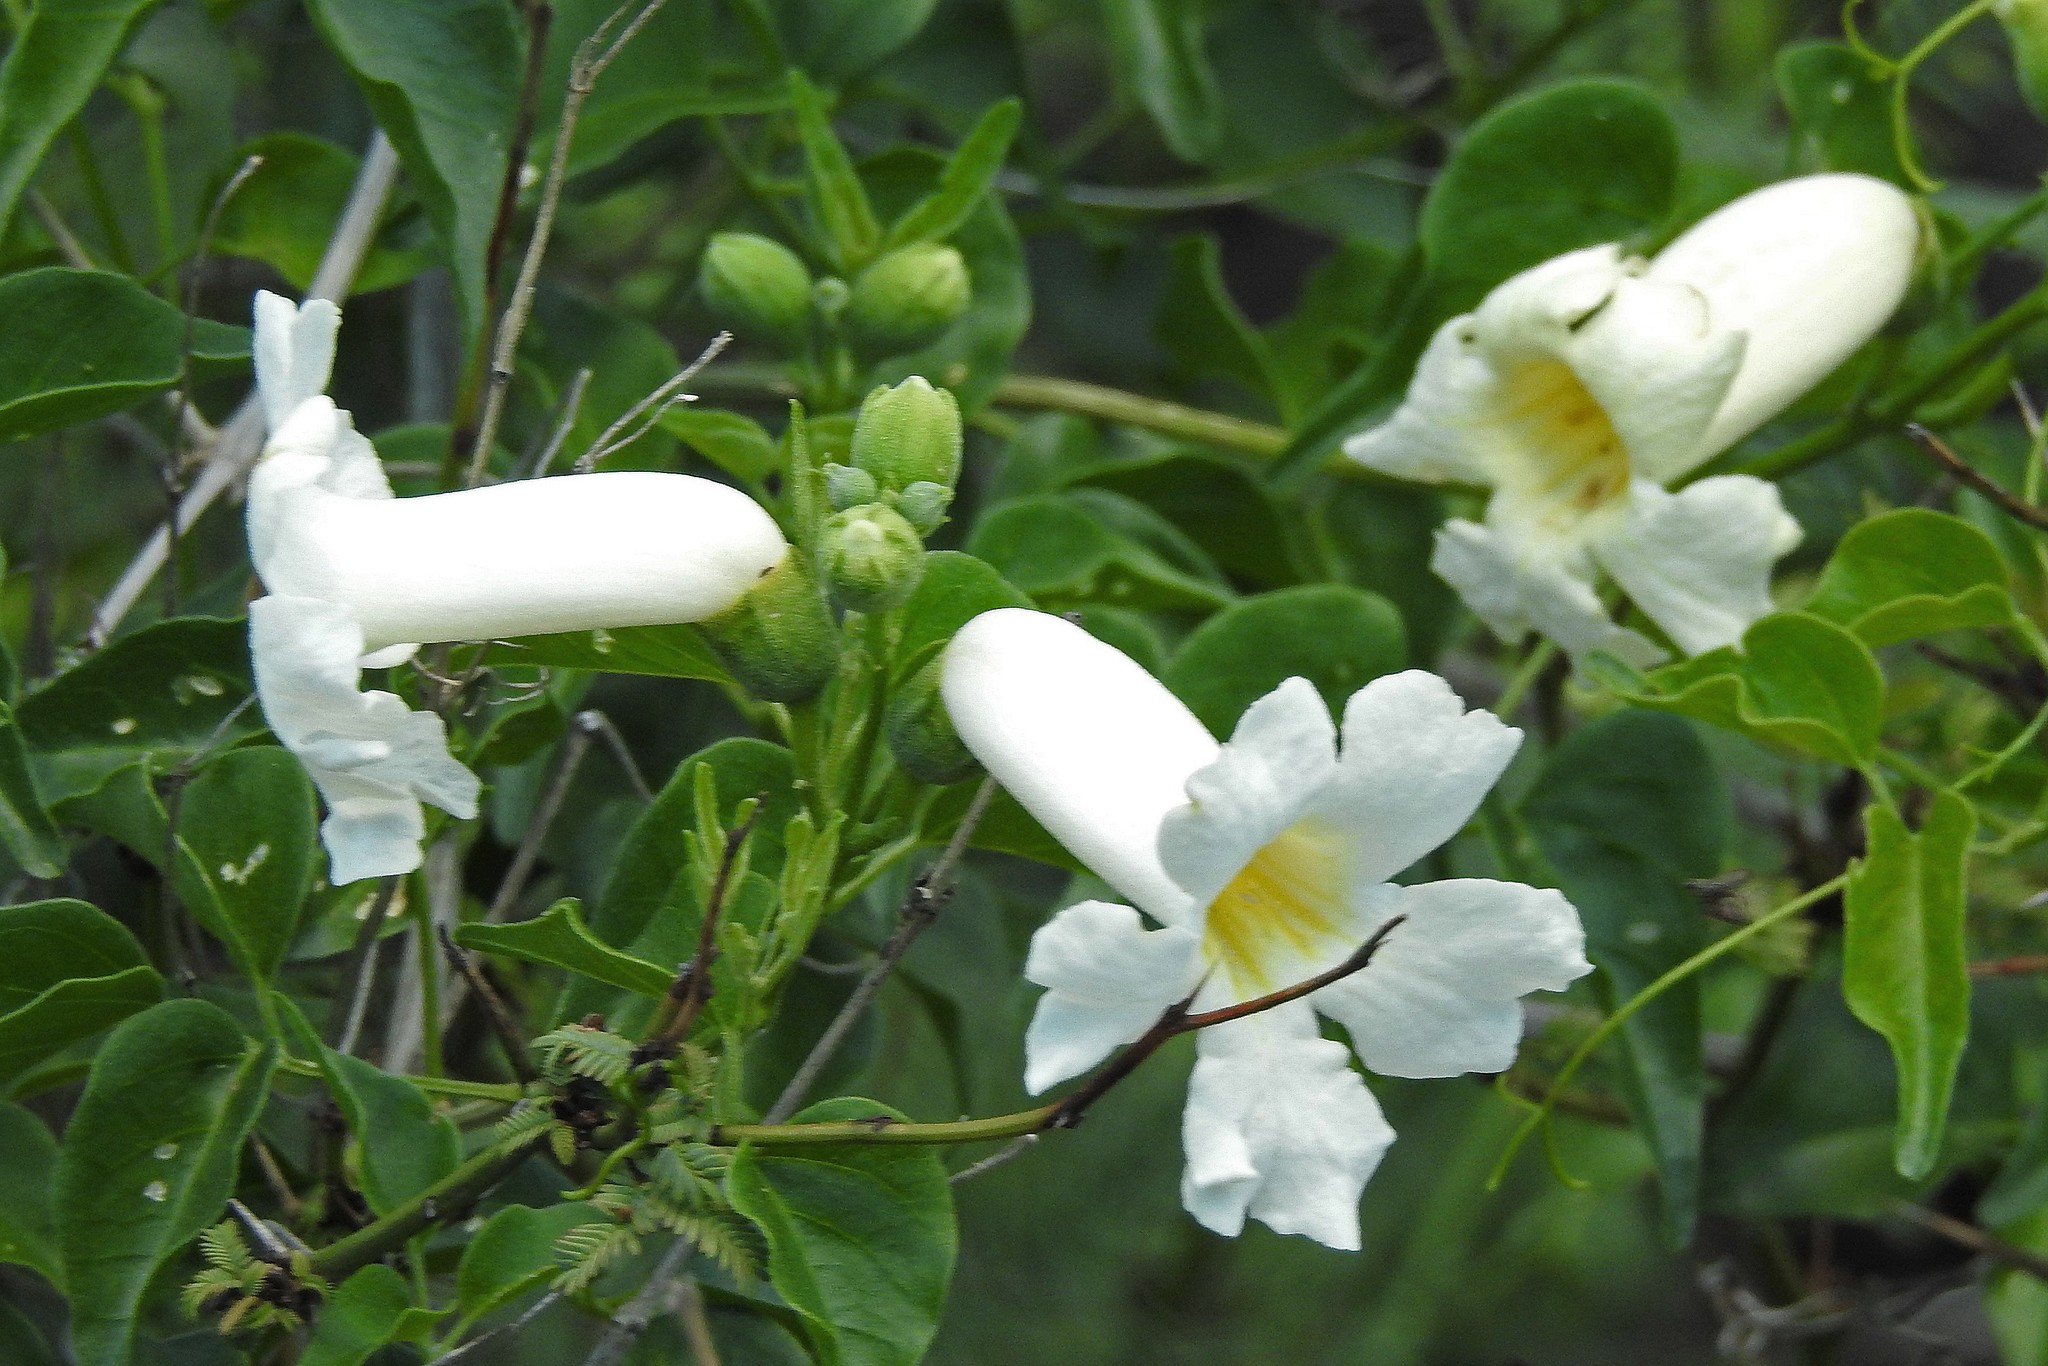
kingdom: Plantae
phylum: Tracheophyta
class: Magnoliopsida
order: Lamiales
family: Bignoniaceae
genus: Amphilophium
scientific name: Amphilophium carolinae
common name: Monkey's-comb
